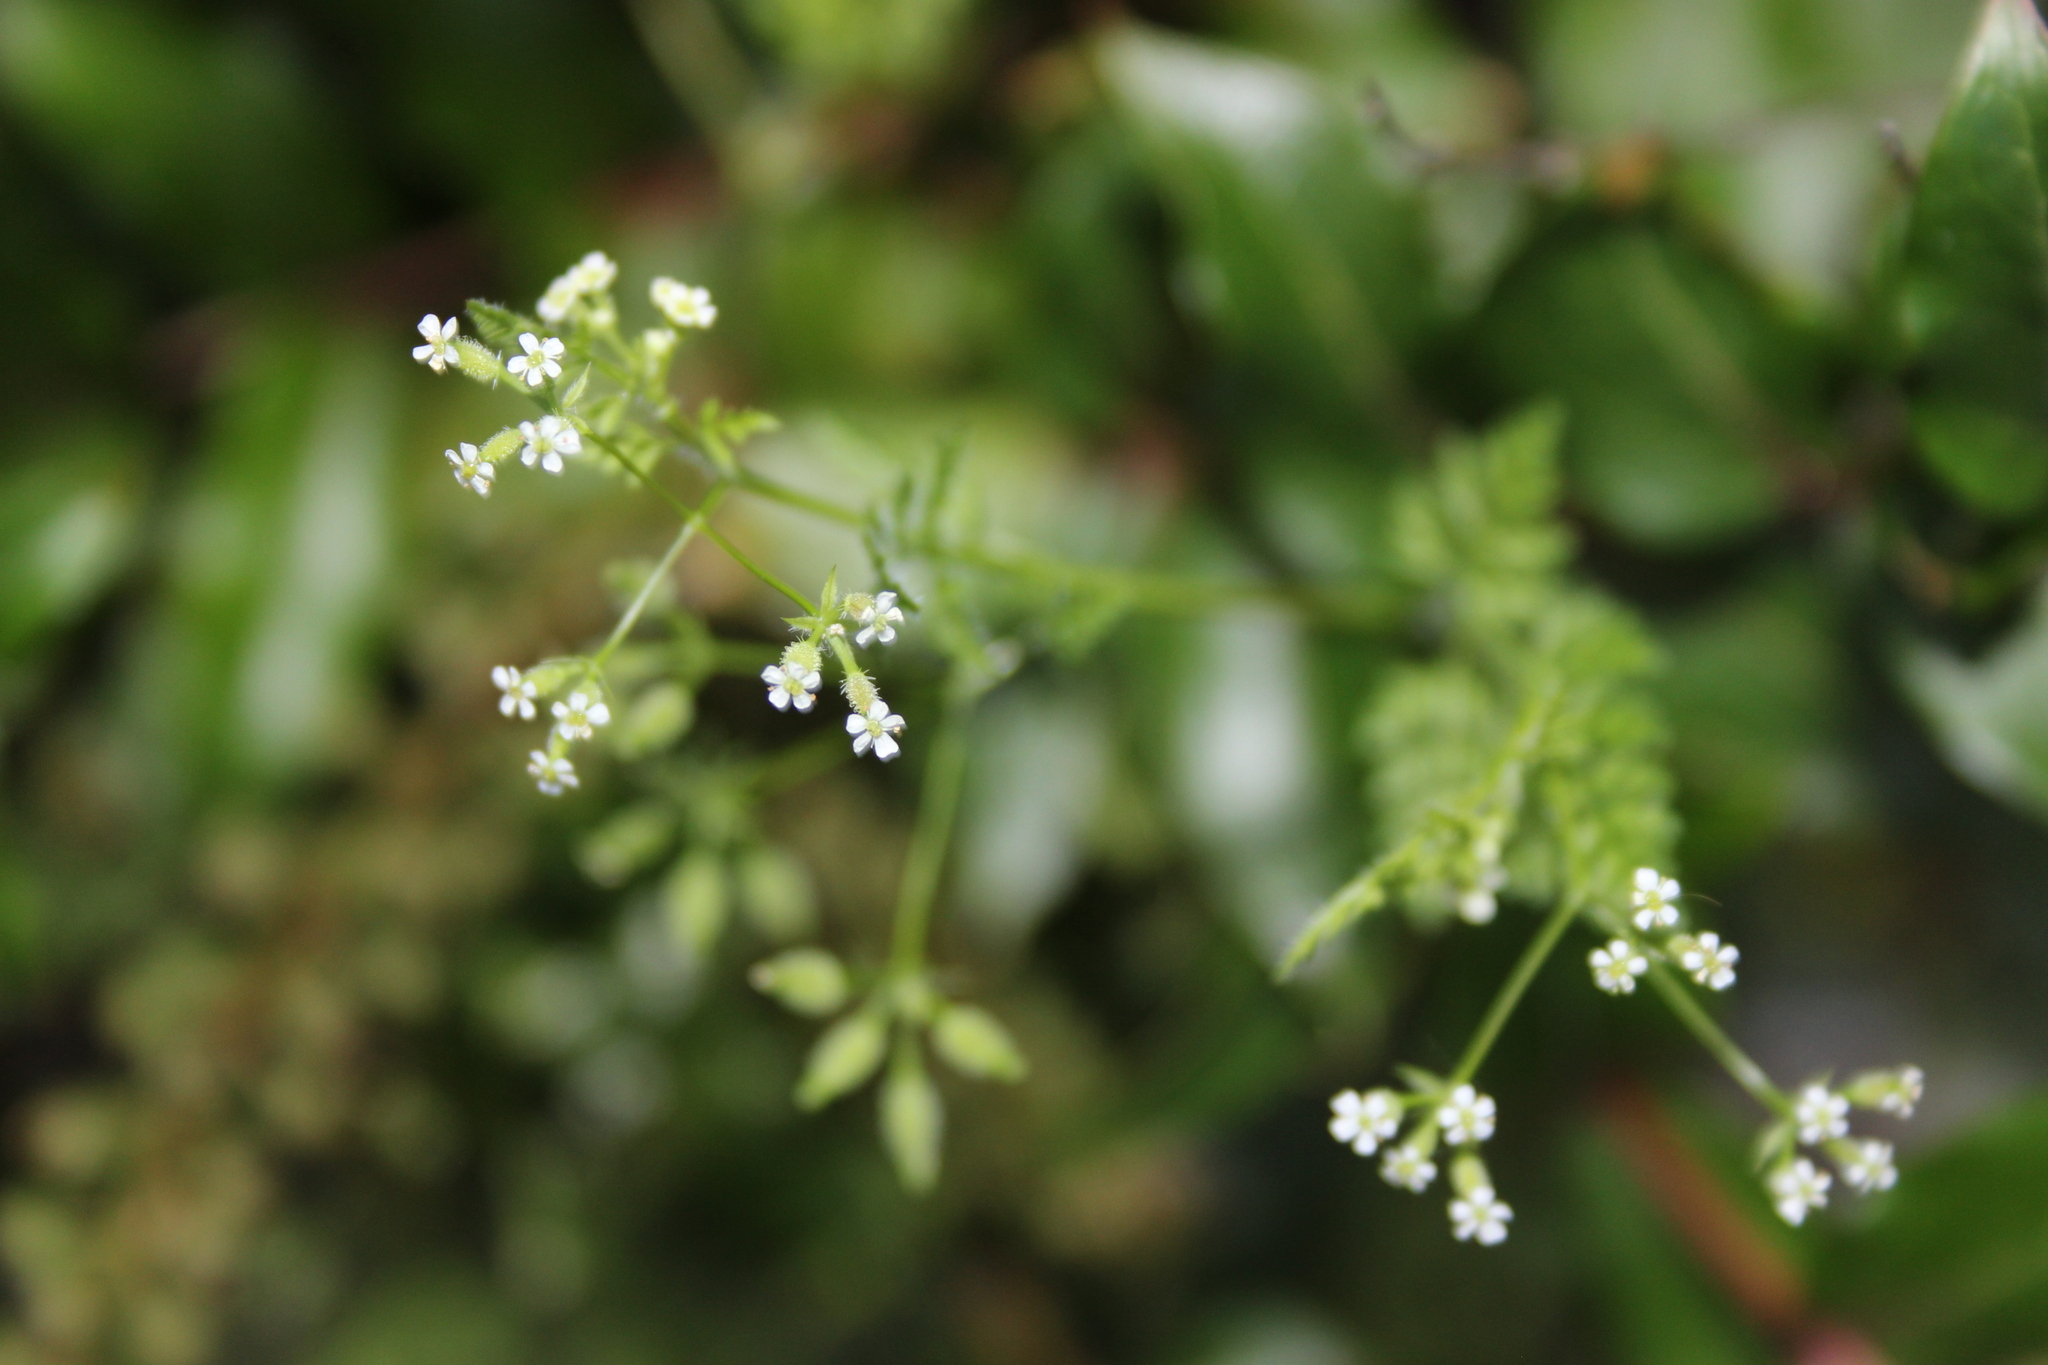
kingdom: Plantae
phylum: Tracheophyta
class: Magnoliopsida
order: Apiales
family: Apiaceae
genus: Anthriscus
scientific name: Anthriscus caucalis
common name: Bur chervil
